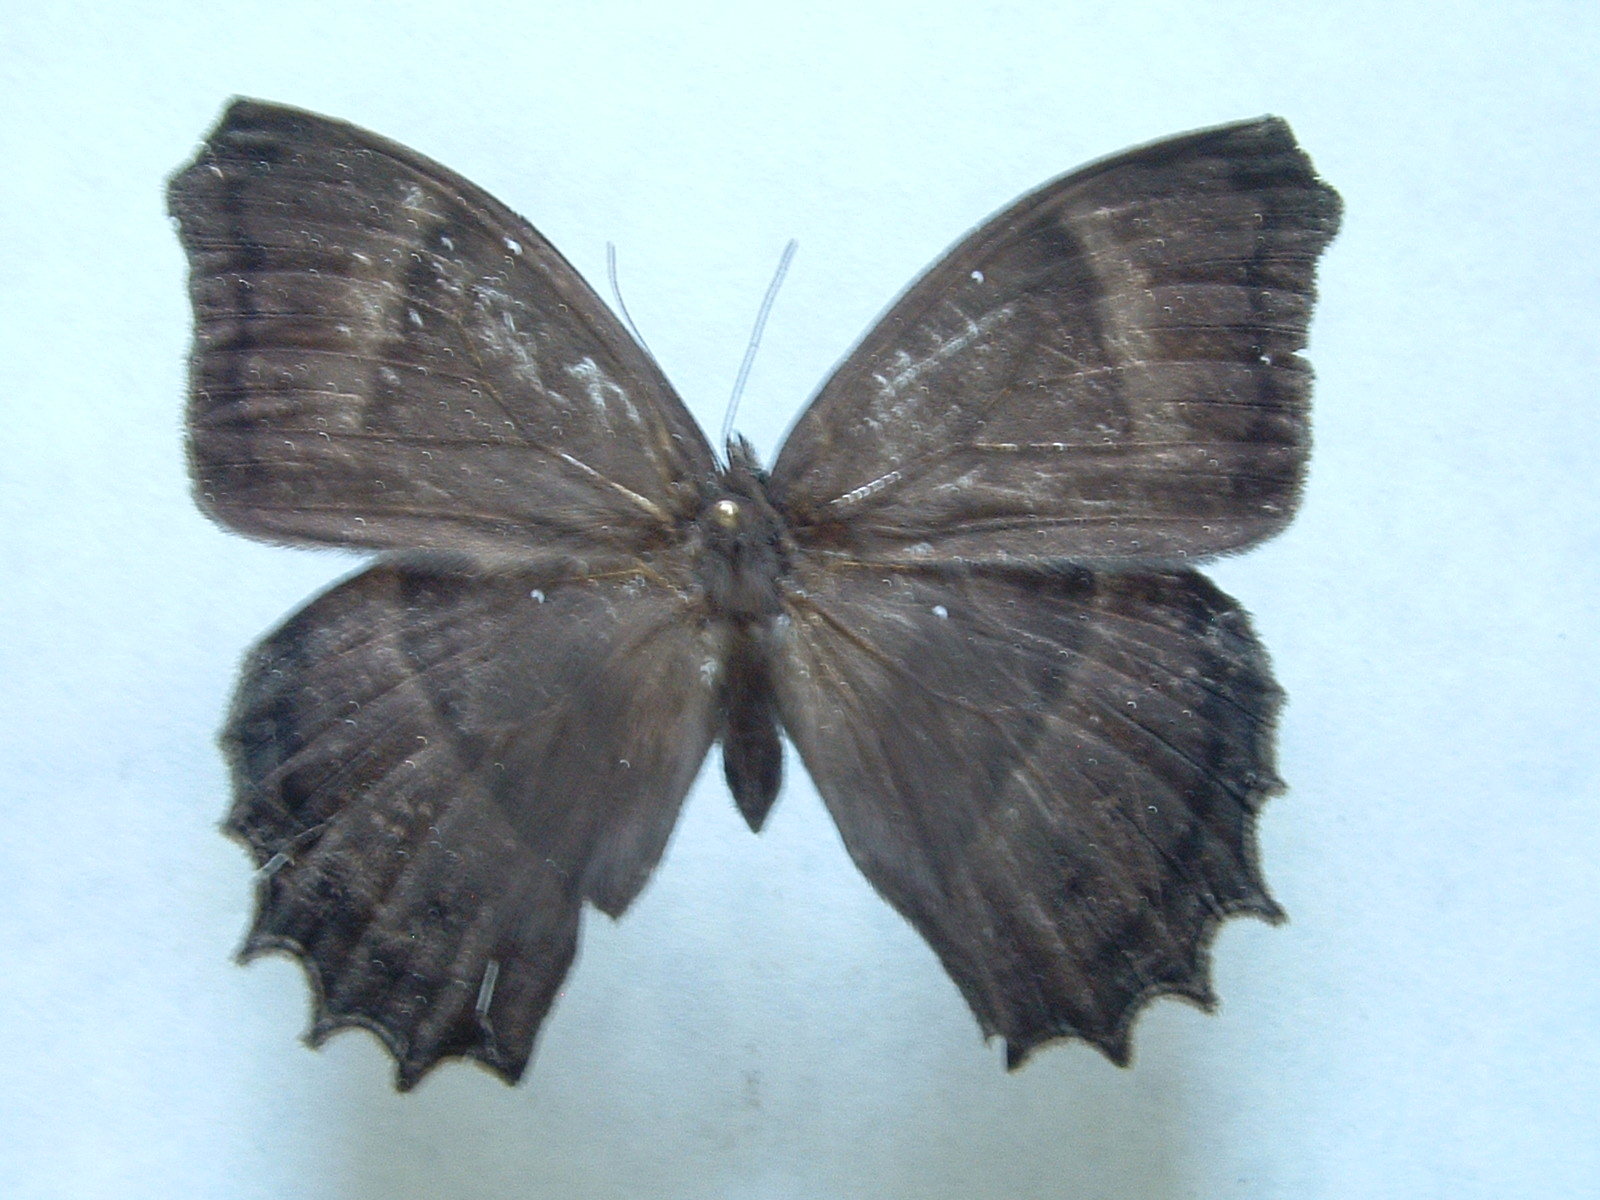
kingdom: Animalia
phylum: Arthropoda
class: Insecta
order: Lepidoptera
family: Nymphalidae
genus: Taygetis
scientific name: Taygetis inconspicua
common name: Inconspicuous satyr
